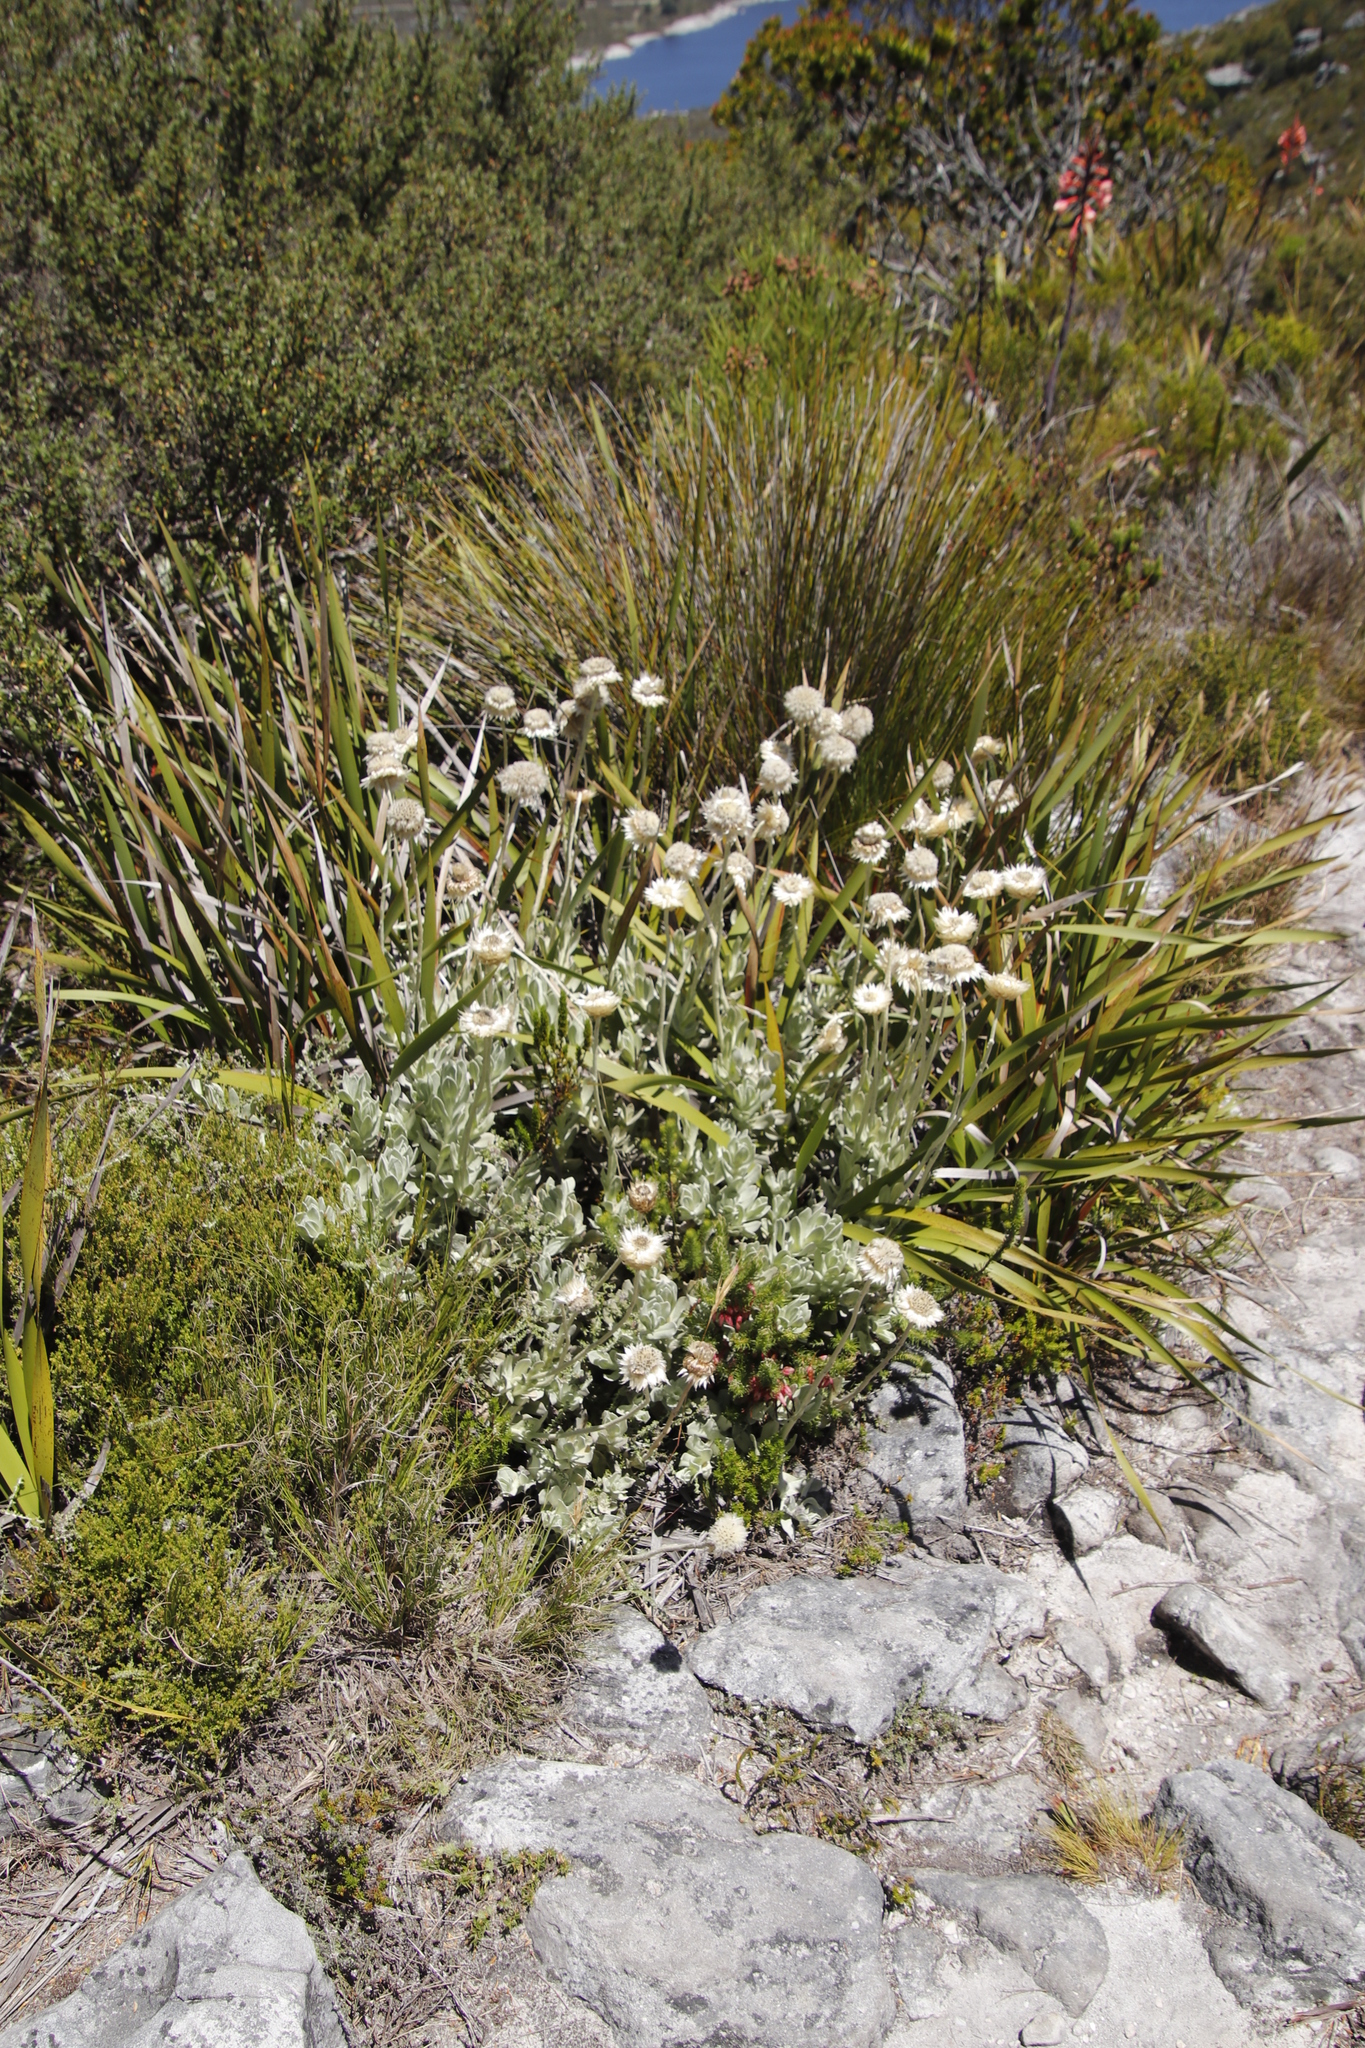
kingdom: Plantae
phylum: Tracheophyta
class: Magnoliopsida
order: Asterales
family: Asteraceae
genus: Syncarpha
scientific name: Syncarpha speciosissima
